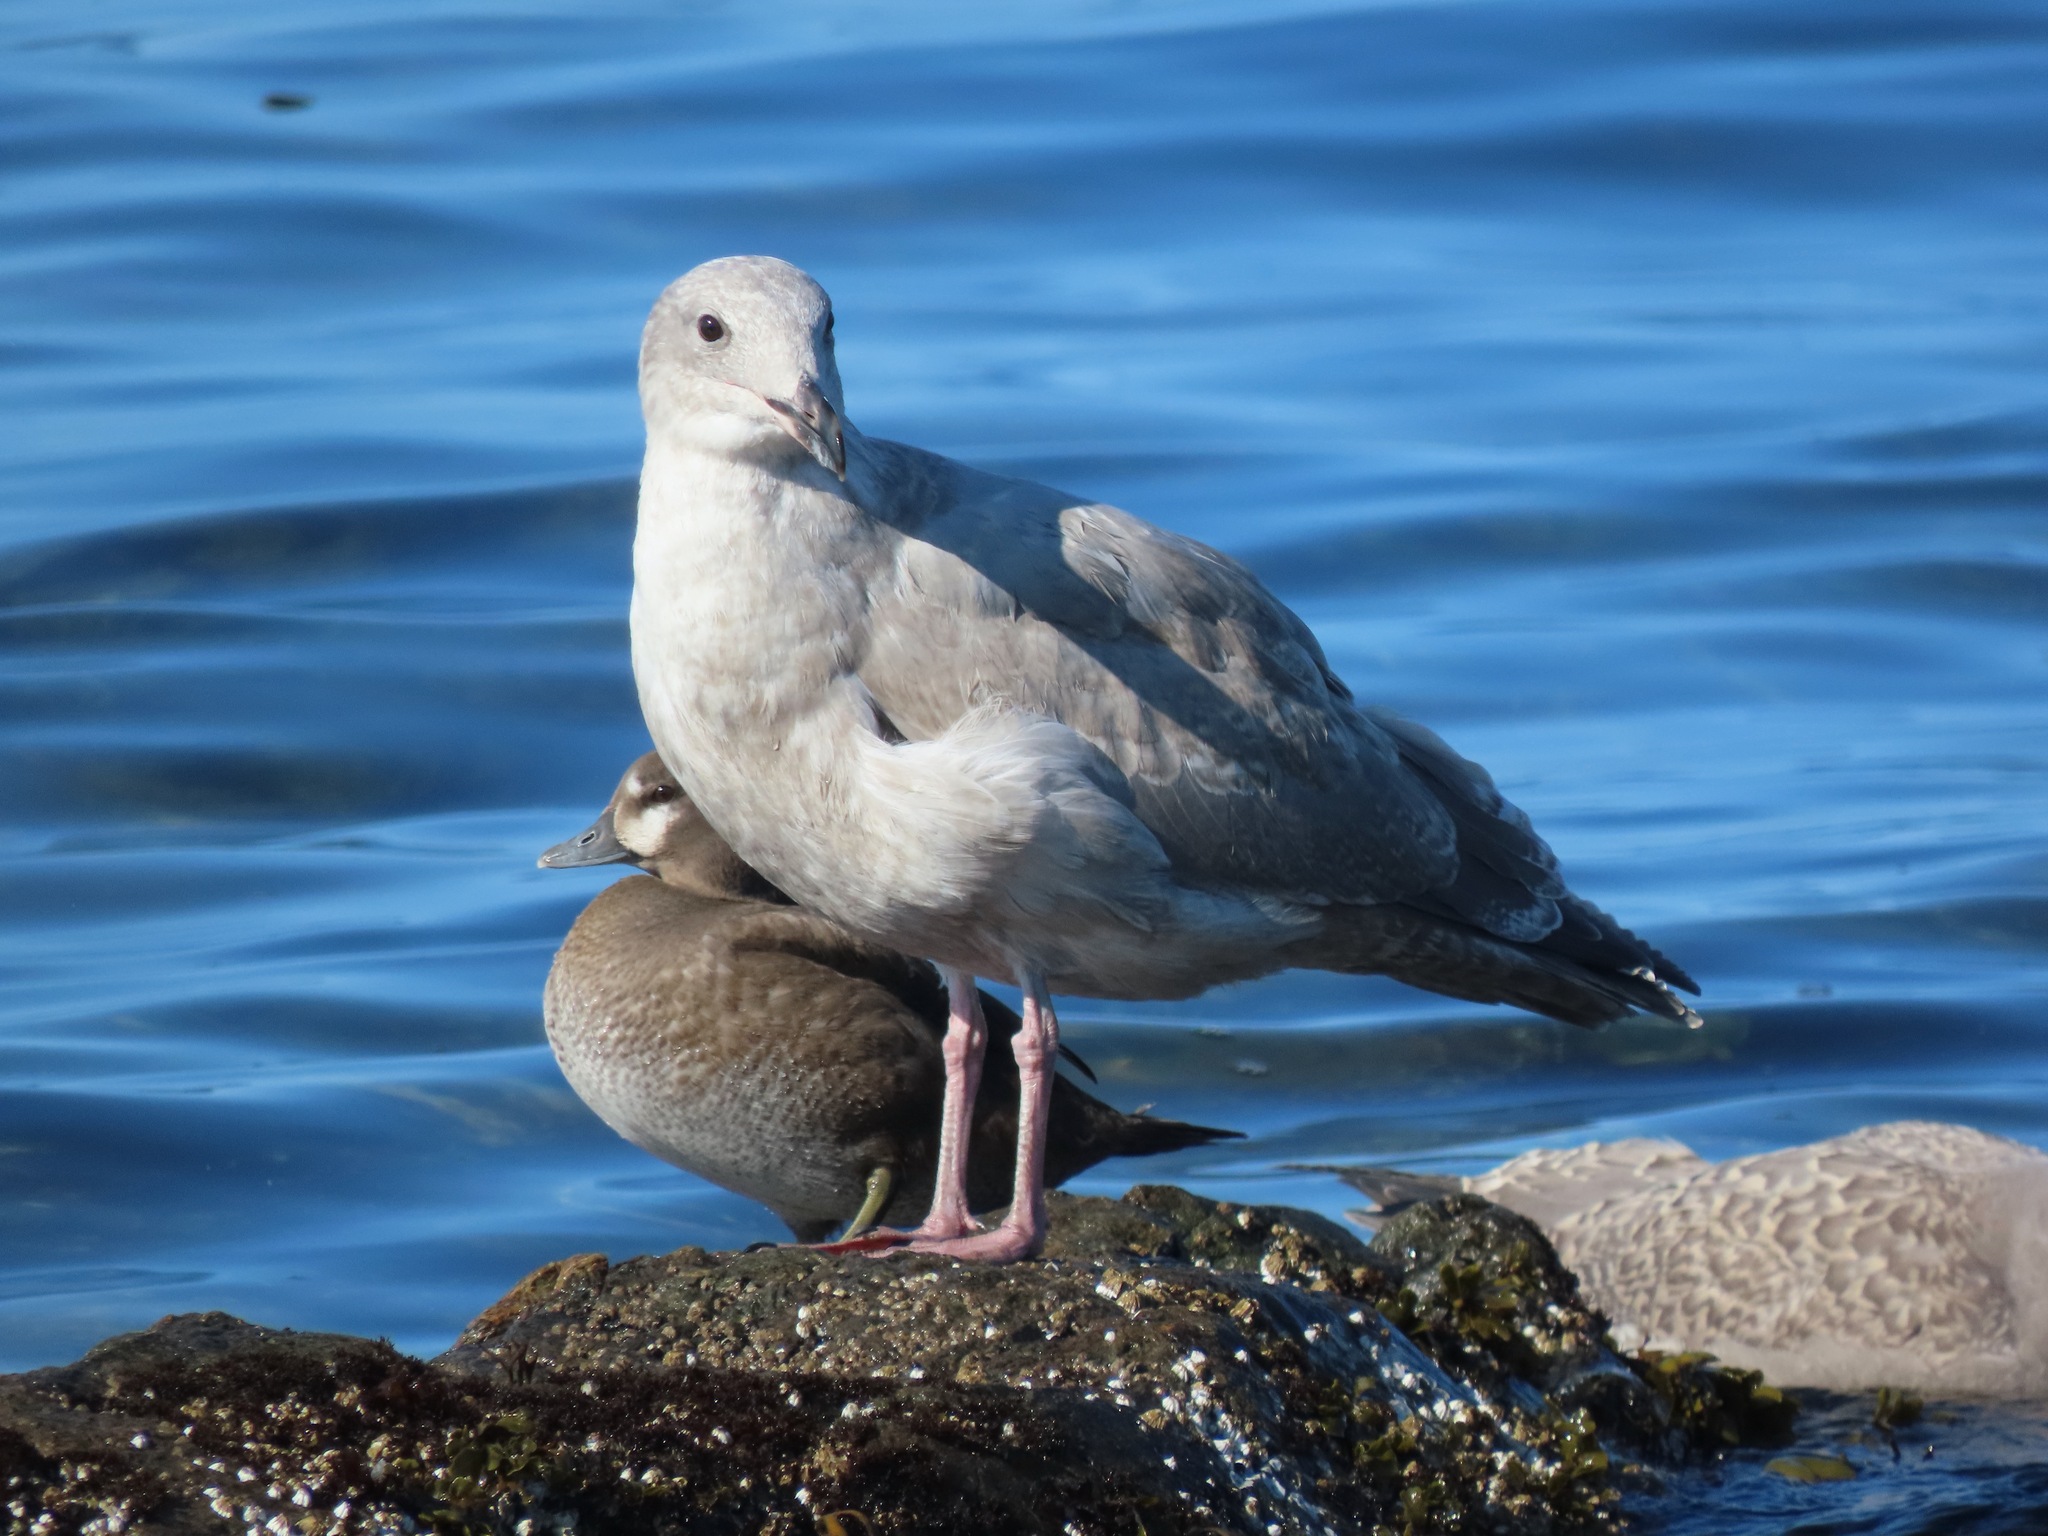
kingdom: Animalia
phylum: Chordata
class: Aves
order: Anseriformes
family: Anatidae
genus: Histrionicus
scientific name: Histrionicus histrionicus
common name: Harlequin duck
